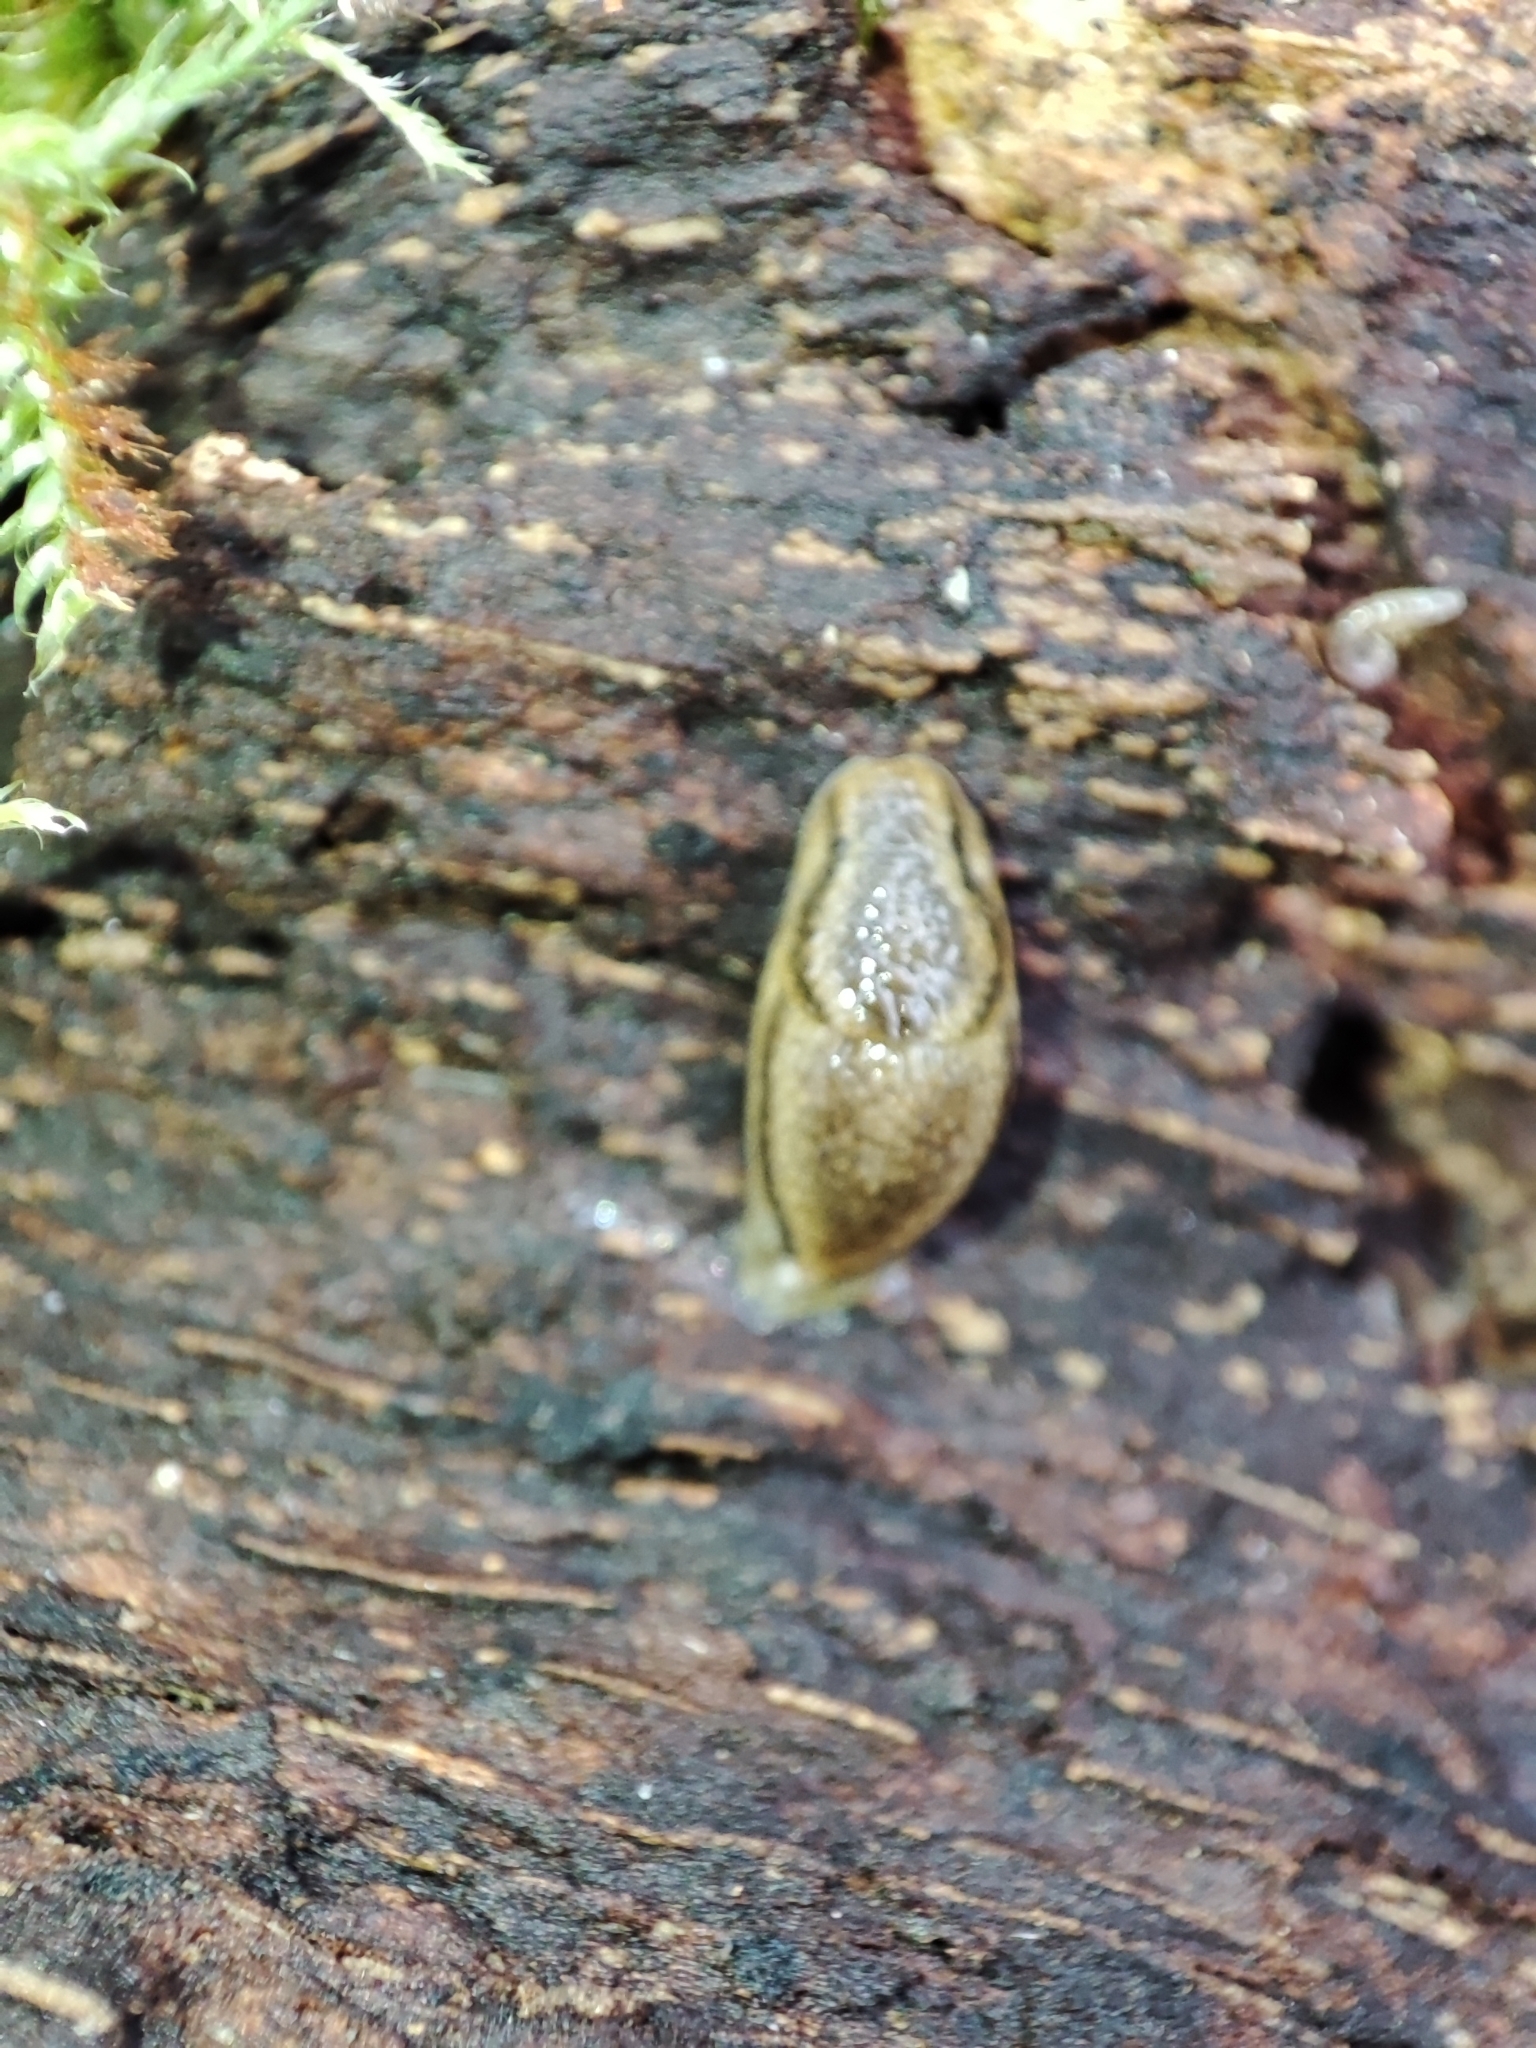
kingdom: Animalia
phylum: Mollusca
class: Gastropoda
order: Stylommatophora
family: Arionidae
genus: Arion
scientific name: Arion fuscus
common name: Northern dusky slug
